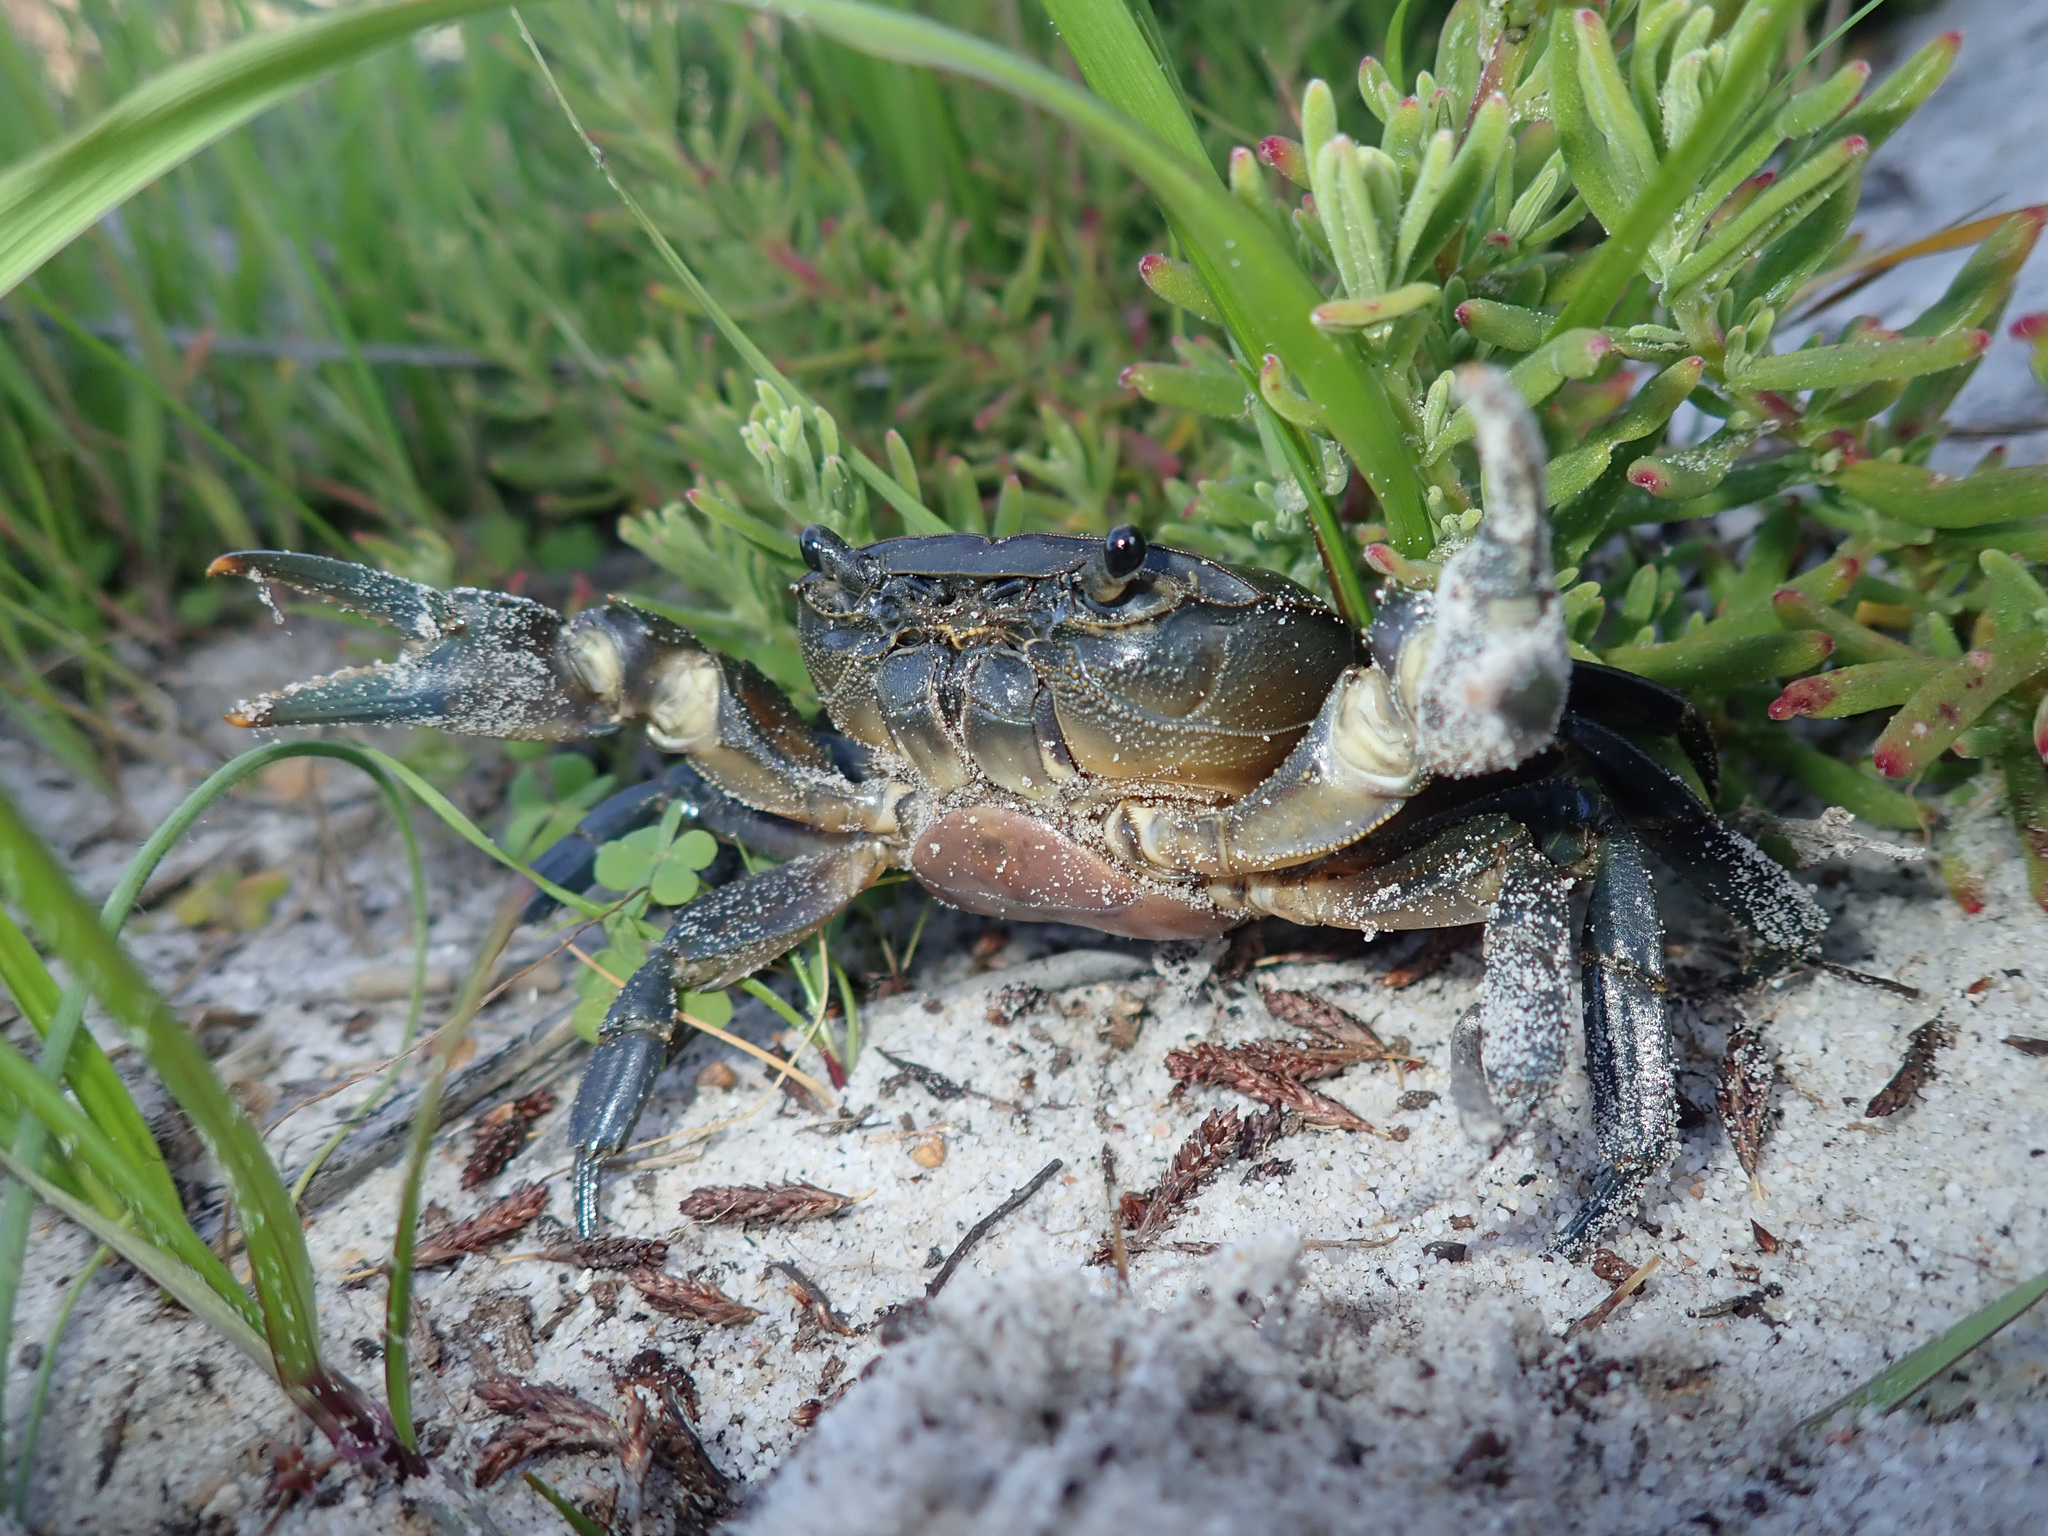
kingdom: Animalia
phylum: Arthropoda
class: Malacostraca
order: Decapoda
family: Potamonautidae
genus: Potamonautes
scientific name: Potamonautes perlatus
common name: Cape river crab
